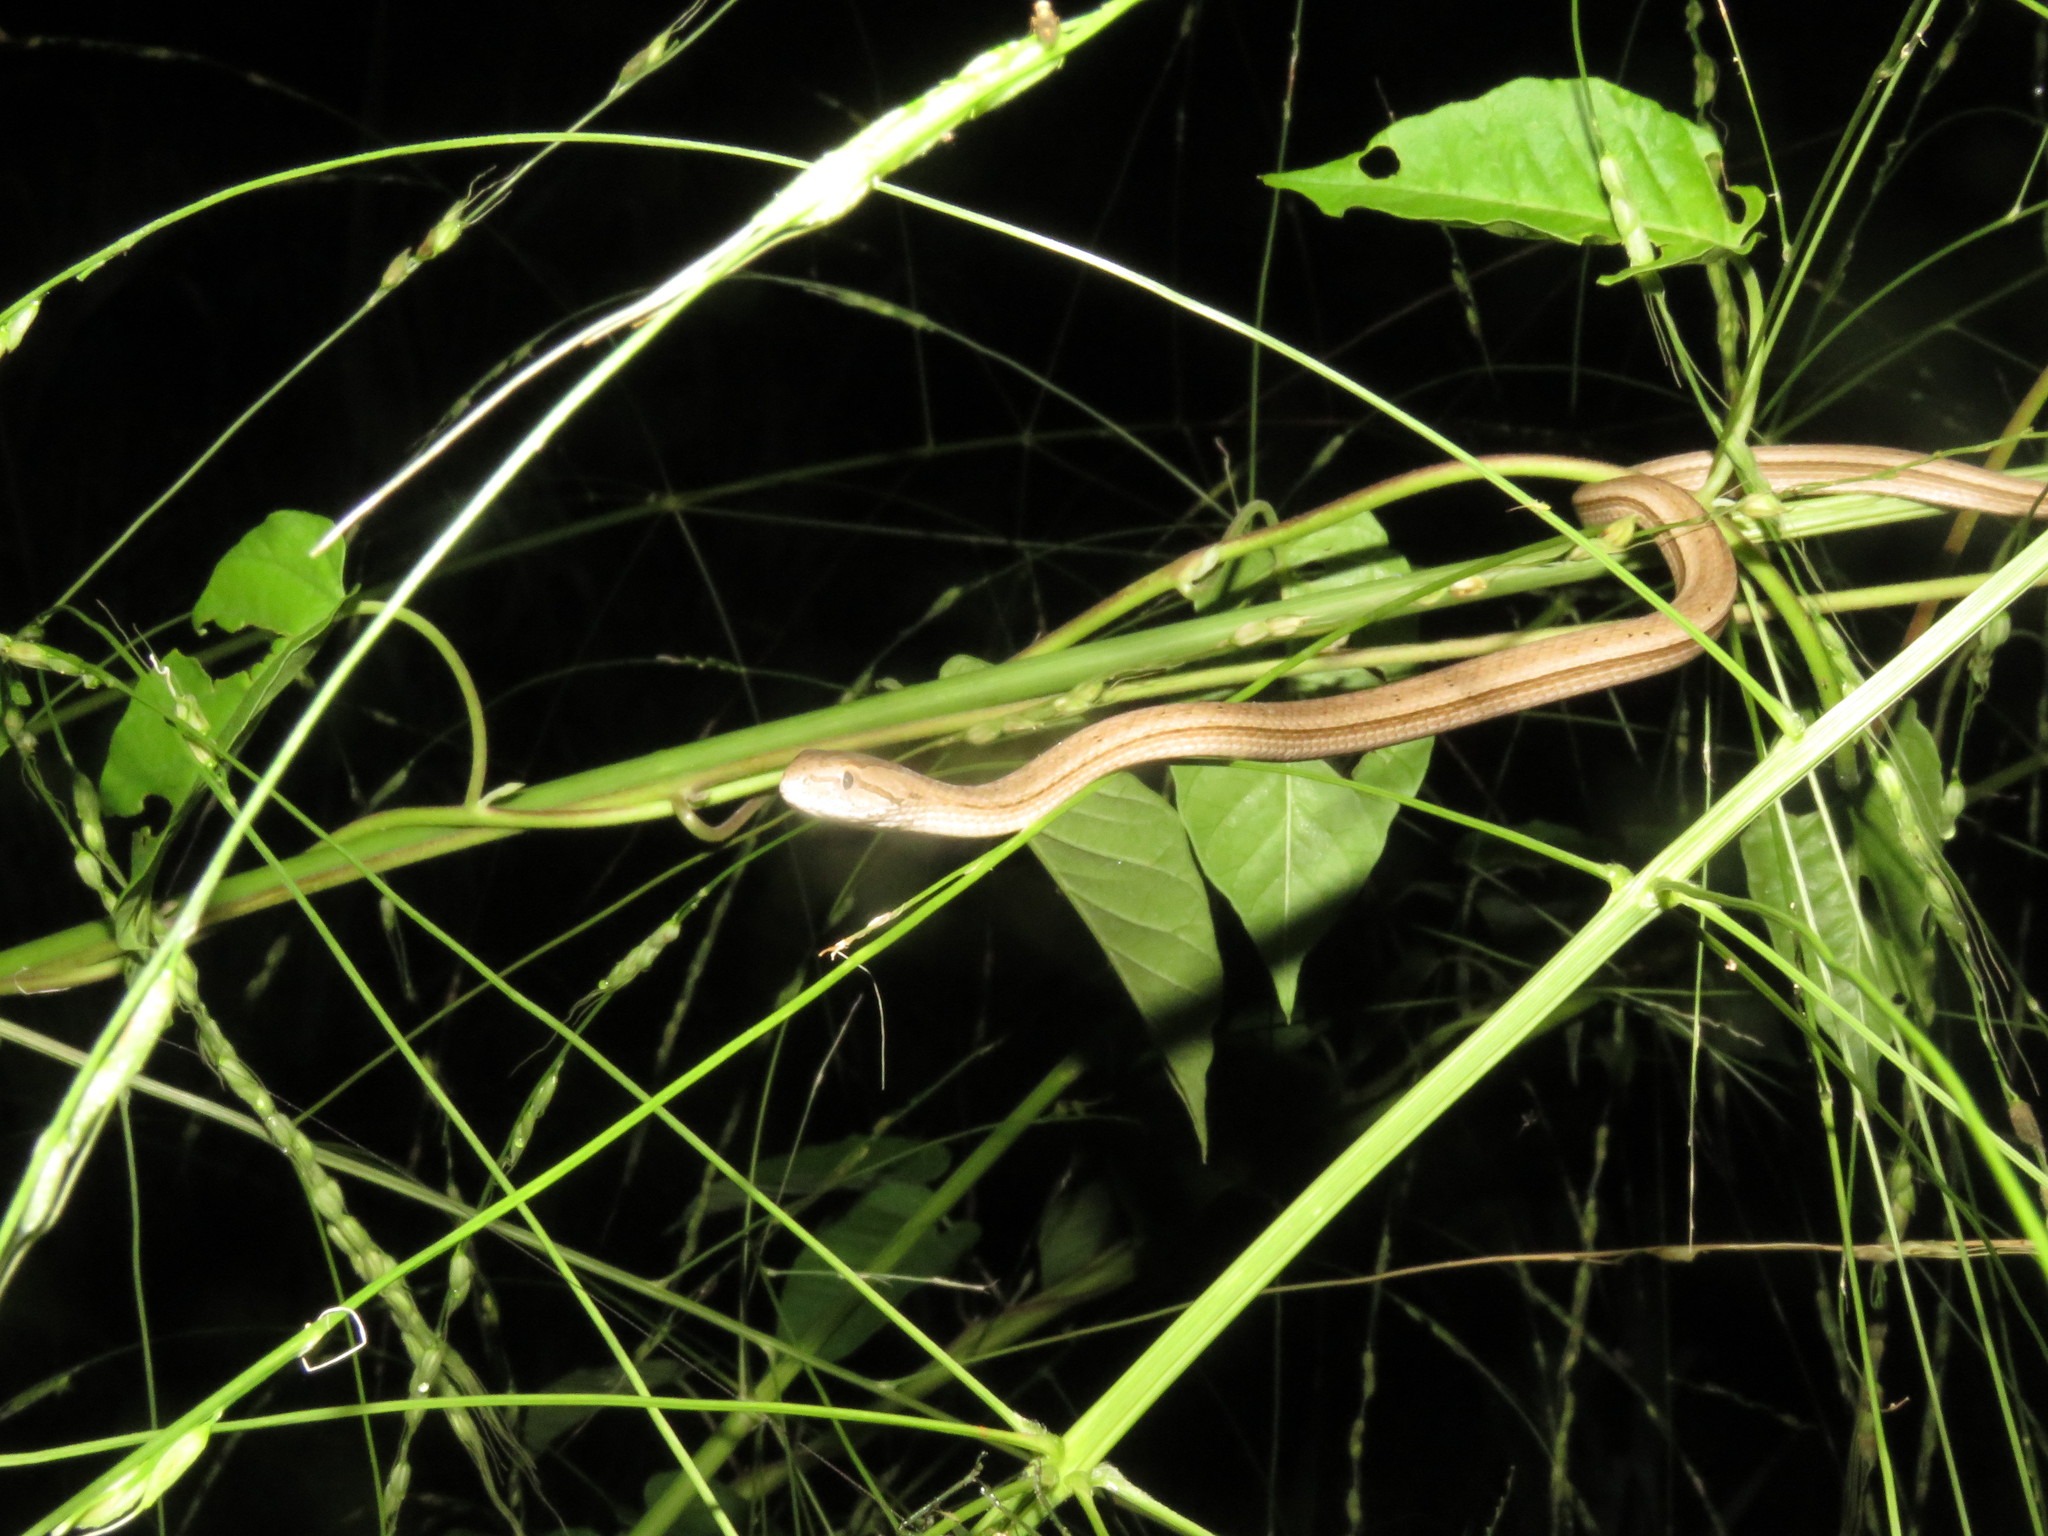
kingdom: Animalia
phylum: Chordata
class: Squamata
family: Colubridae
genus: Thamnodynastes
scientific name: Thamnodynastes pallidus
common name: Amazon coastal house snake
